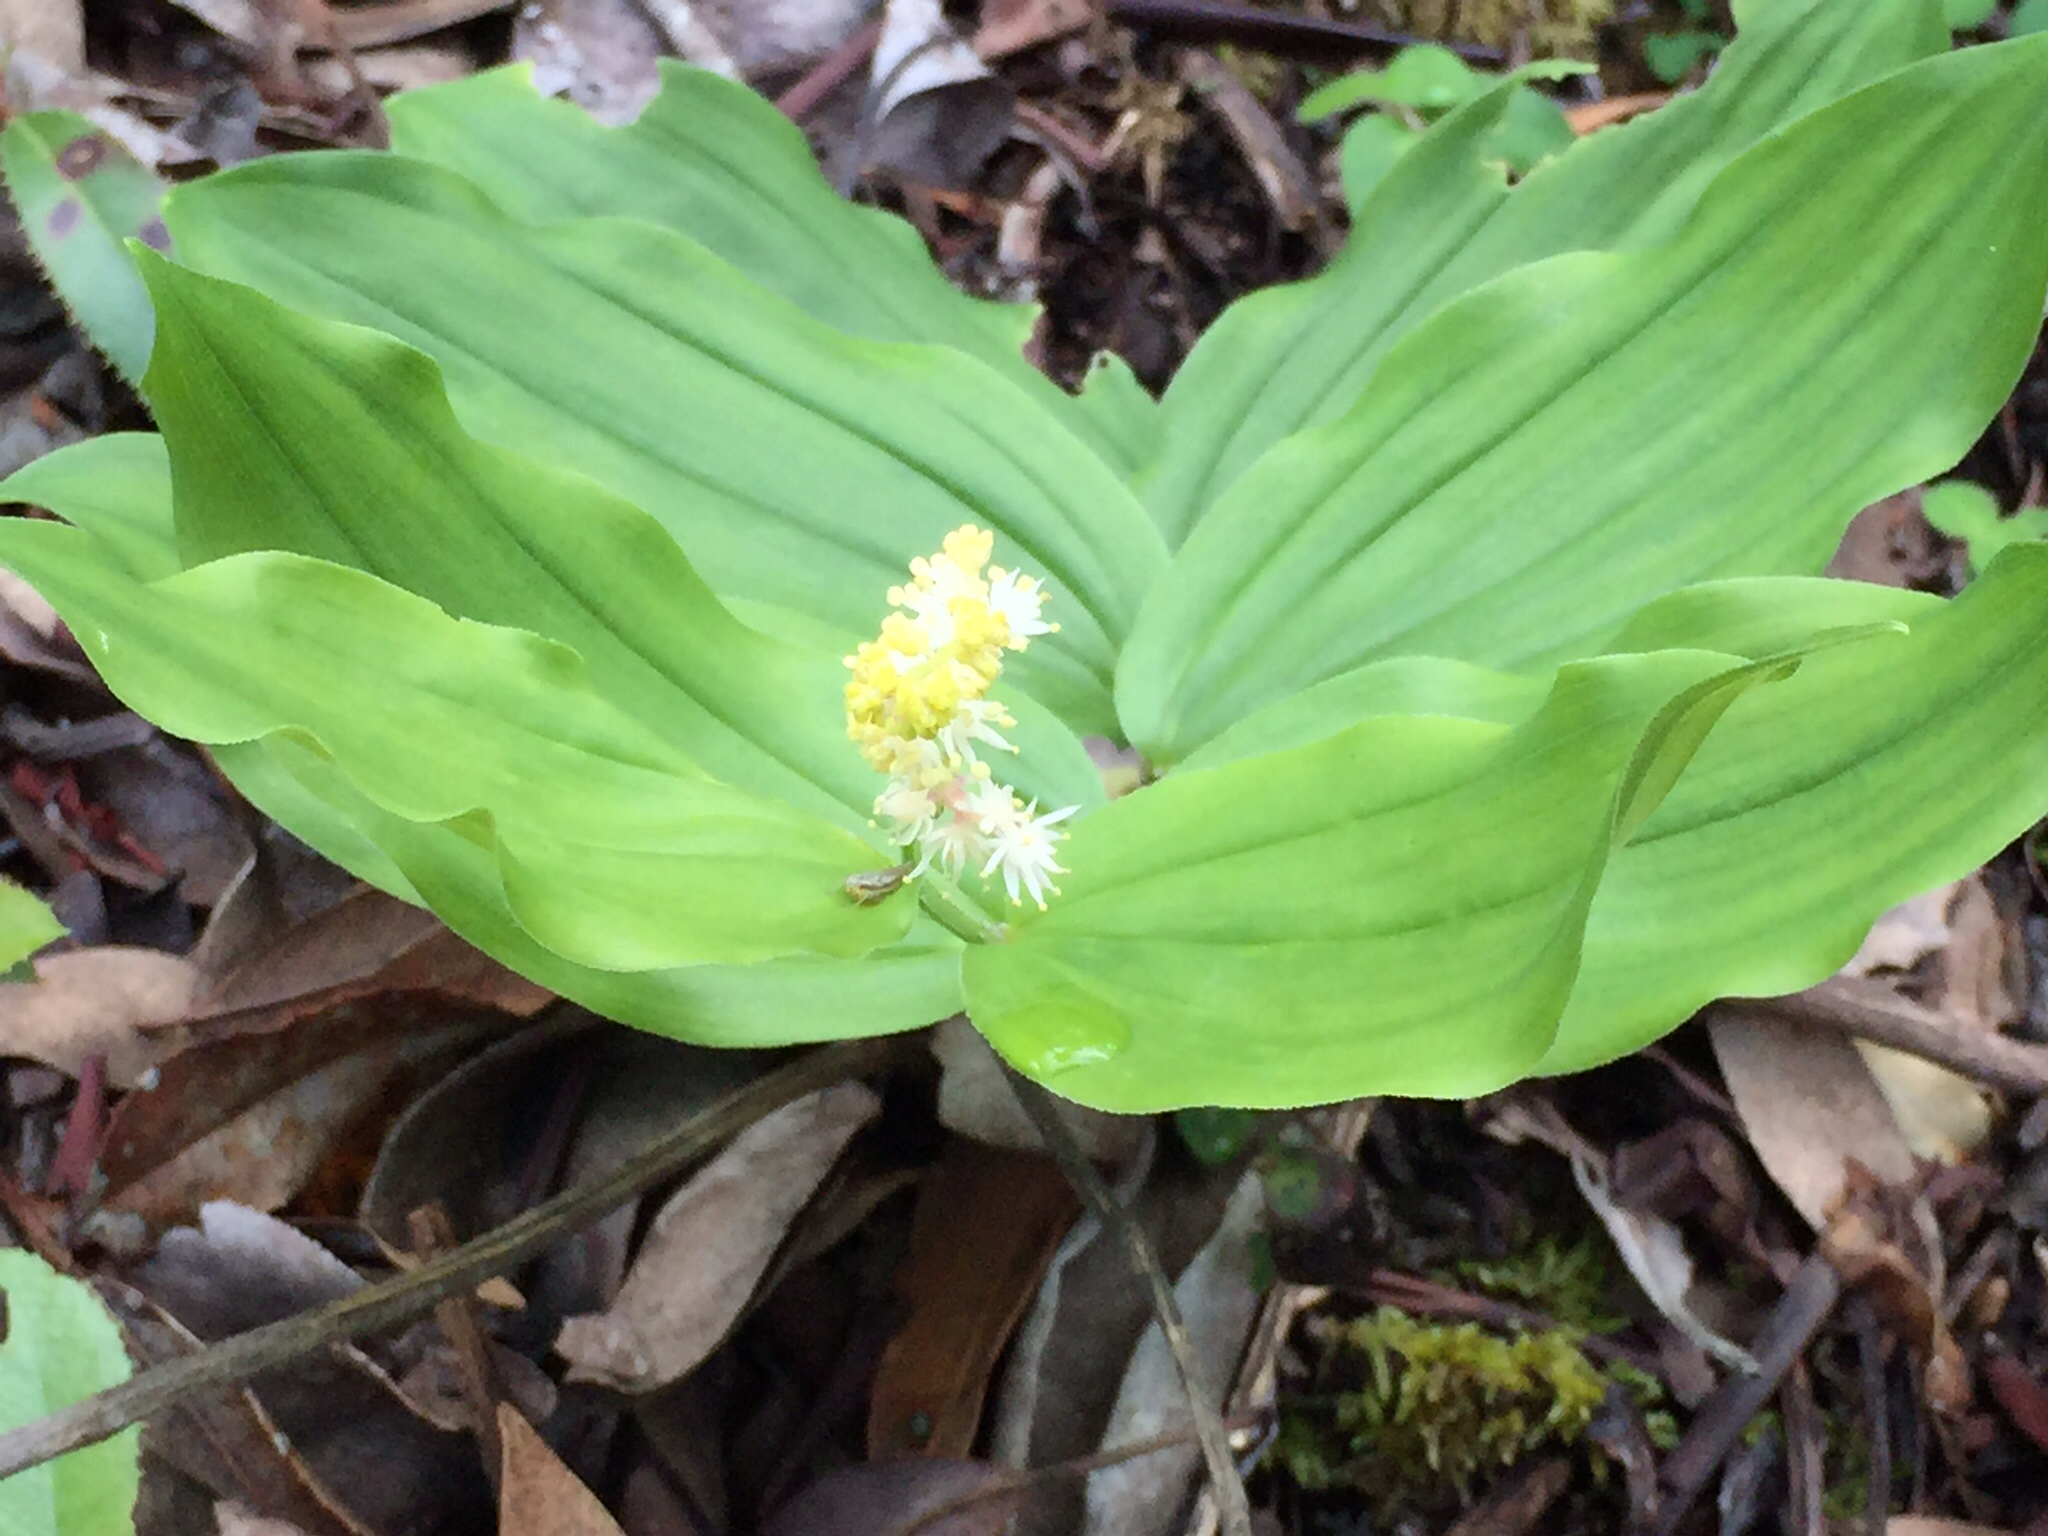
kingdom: Plantae
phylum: Tracheophyta
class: Liliopsida
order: Asparagales
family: Asparagaceae
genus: Maianthemum
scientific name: Maianthemum racemosum
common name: False spikenard
